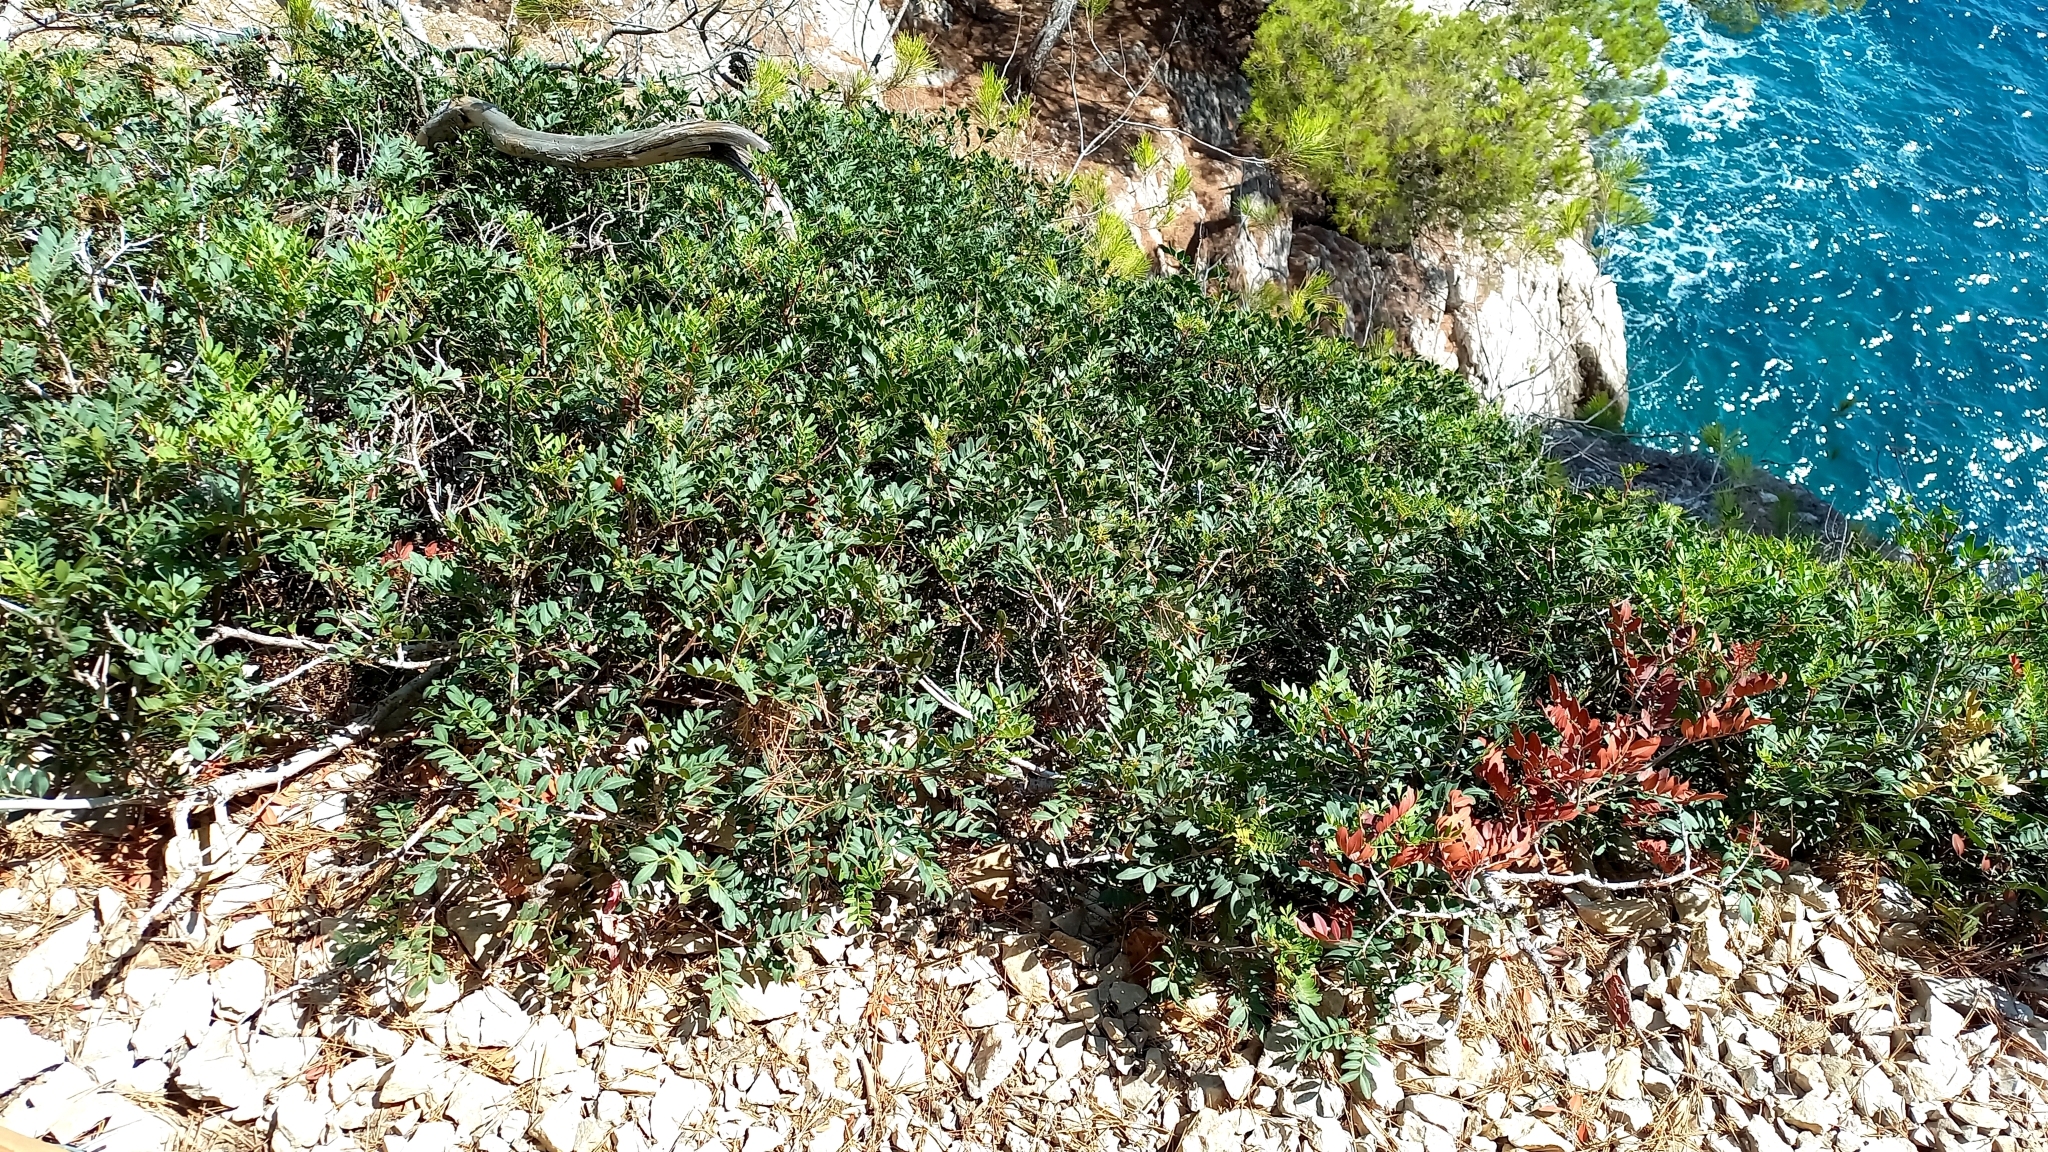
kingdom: Plantae
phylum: Tracheophyta
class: Magnoliopsida
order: Sapindales
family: Anacardiaceae
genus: Pistacia
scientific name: Pistacia lentiscus
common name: Lentisk
